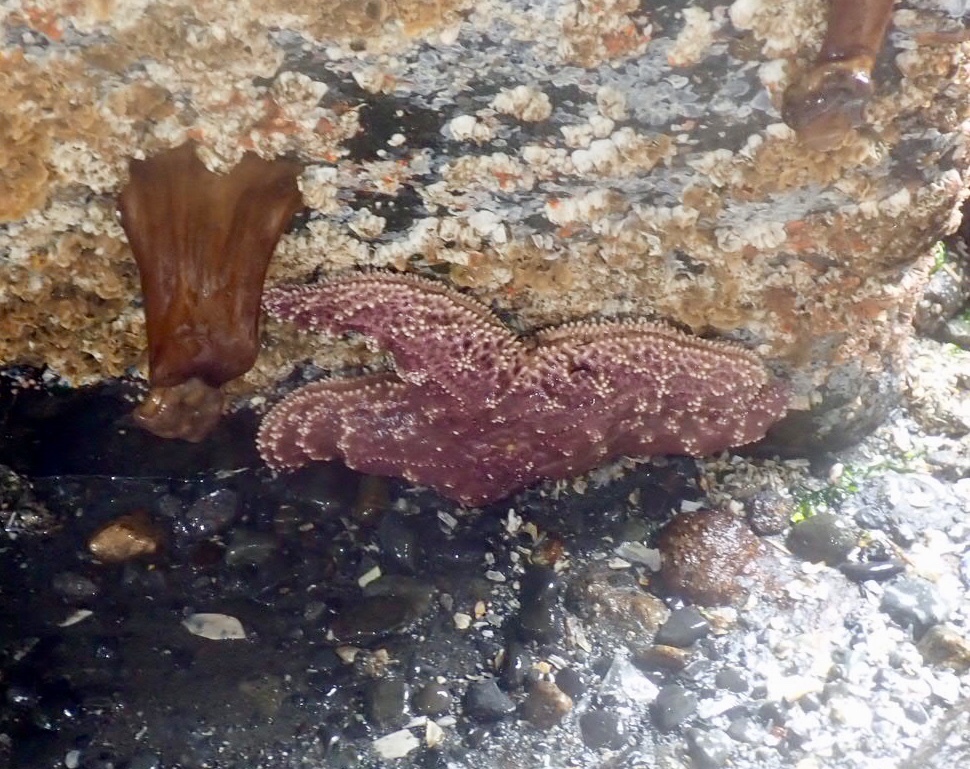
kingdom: Animalia
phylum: Echinodermata
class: Asteroidea
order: Forcipulatida
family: Asteriidae
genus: Pisaster
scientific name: Pisaster ochraceus
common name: Ochre stars
